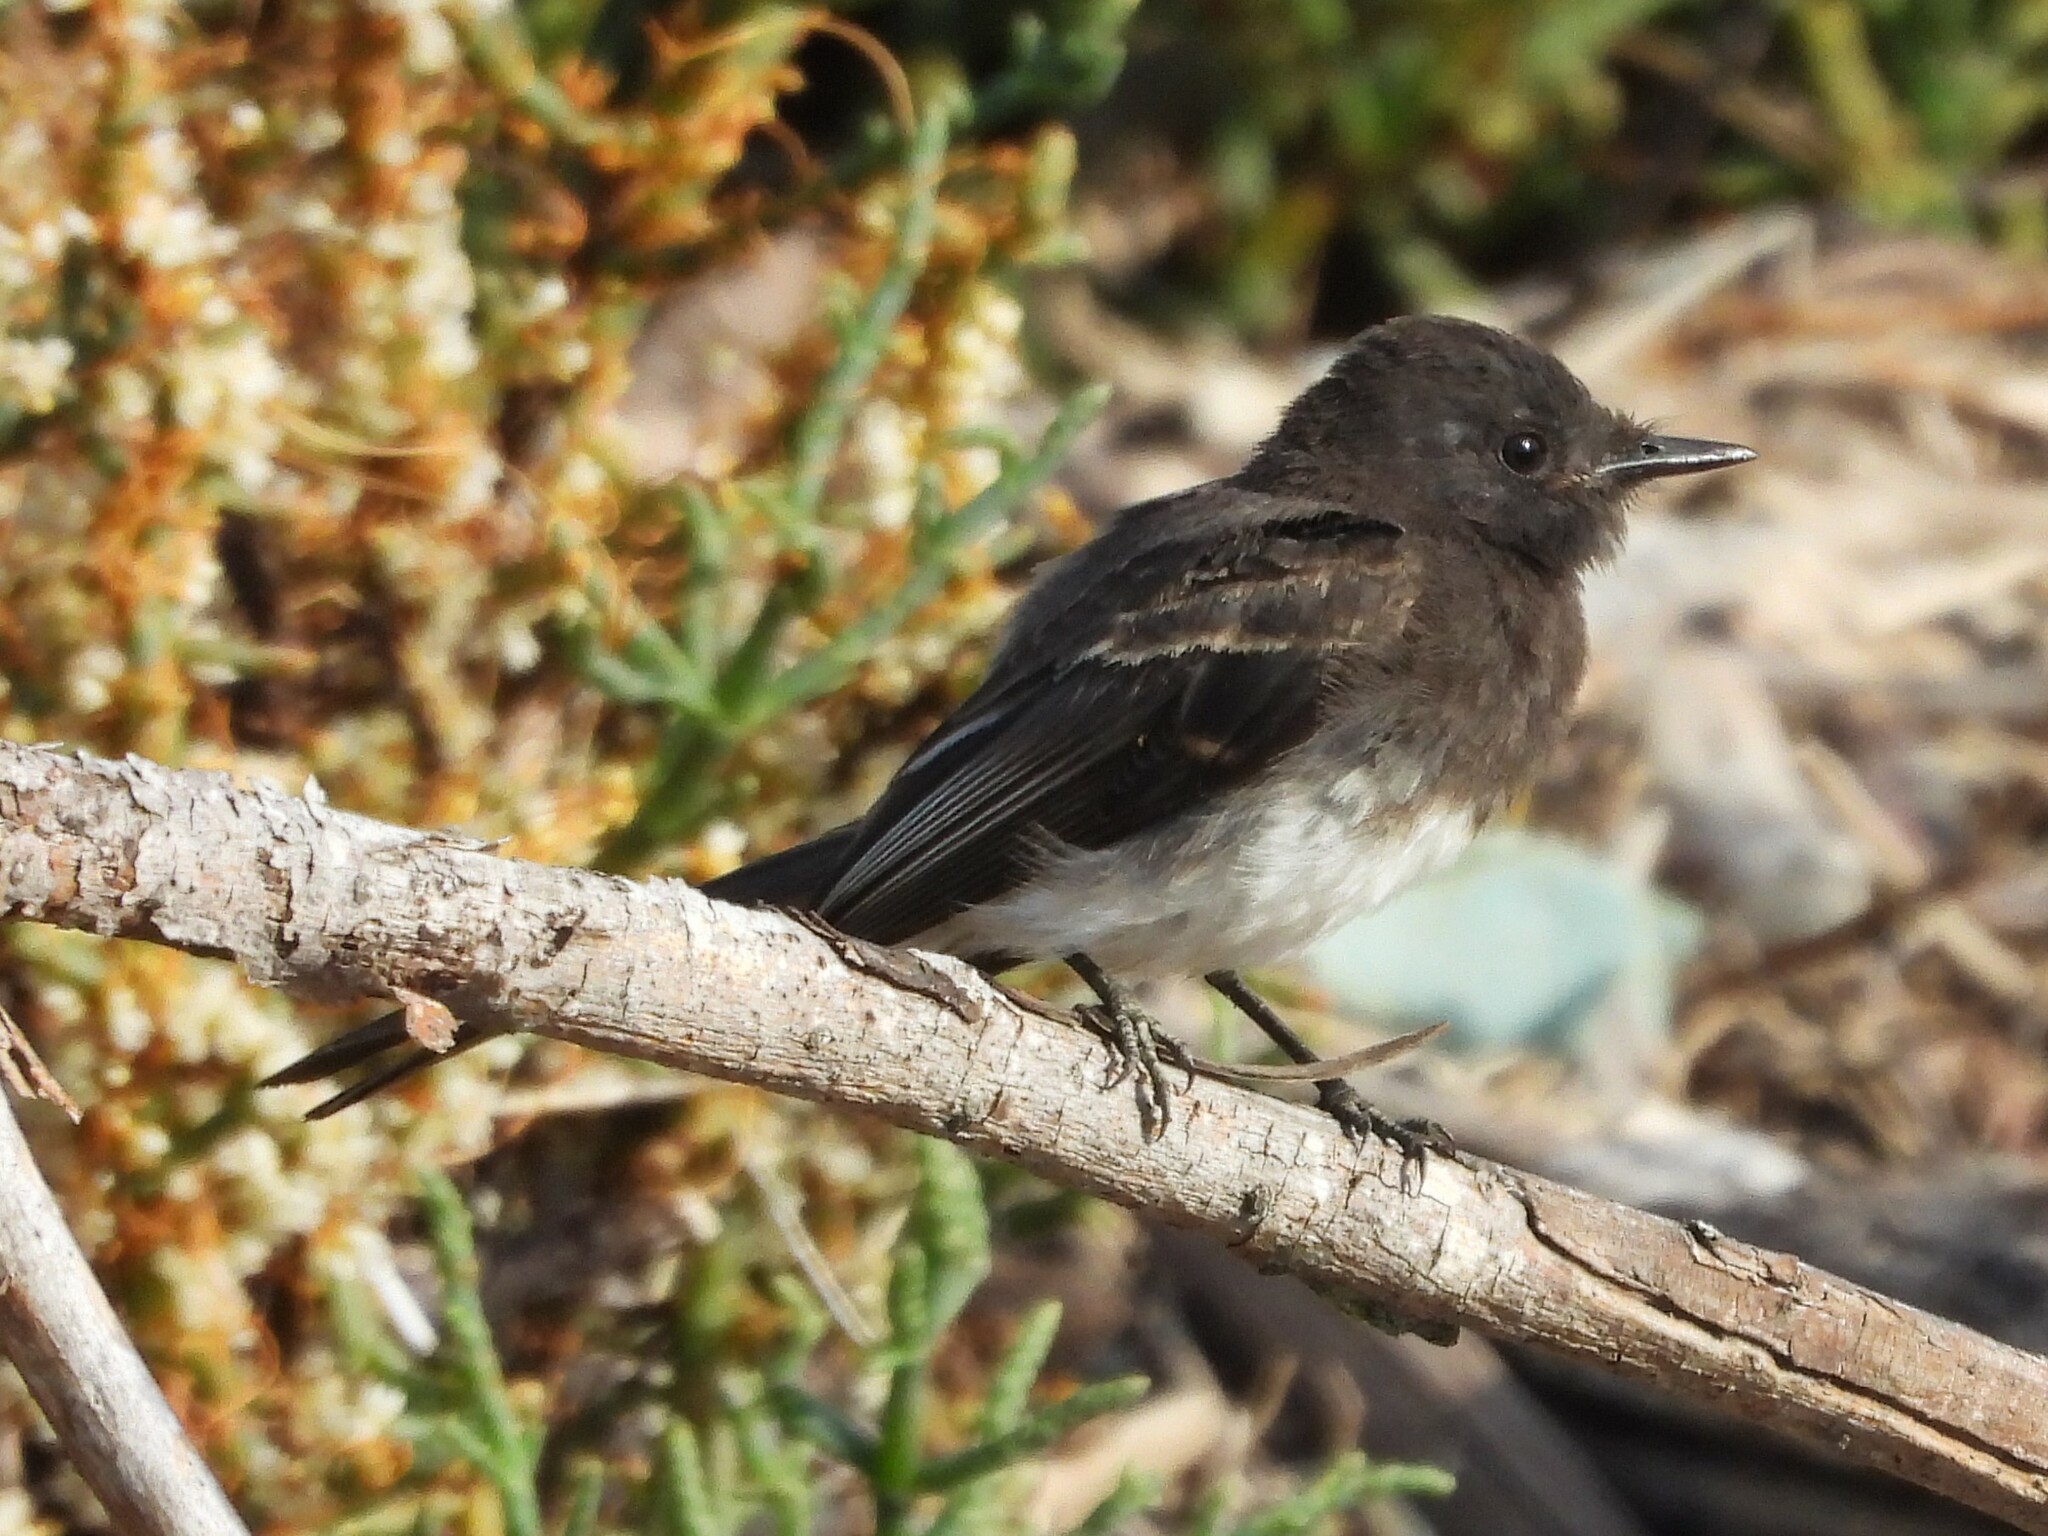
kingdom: Animalia
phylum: Chordata
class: Aves
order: Passeriformes
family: Tyrannidae
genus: Sayornis
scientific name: Sayornis nigricans
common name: Black phoebe
